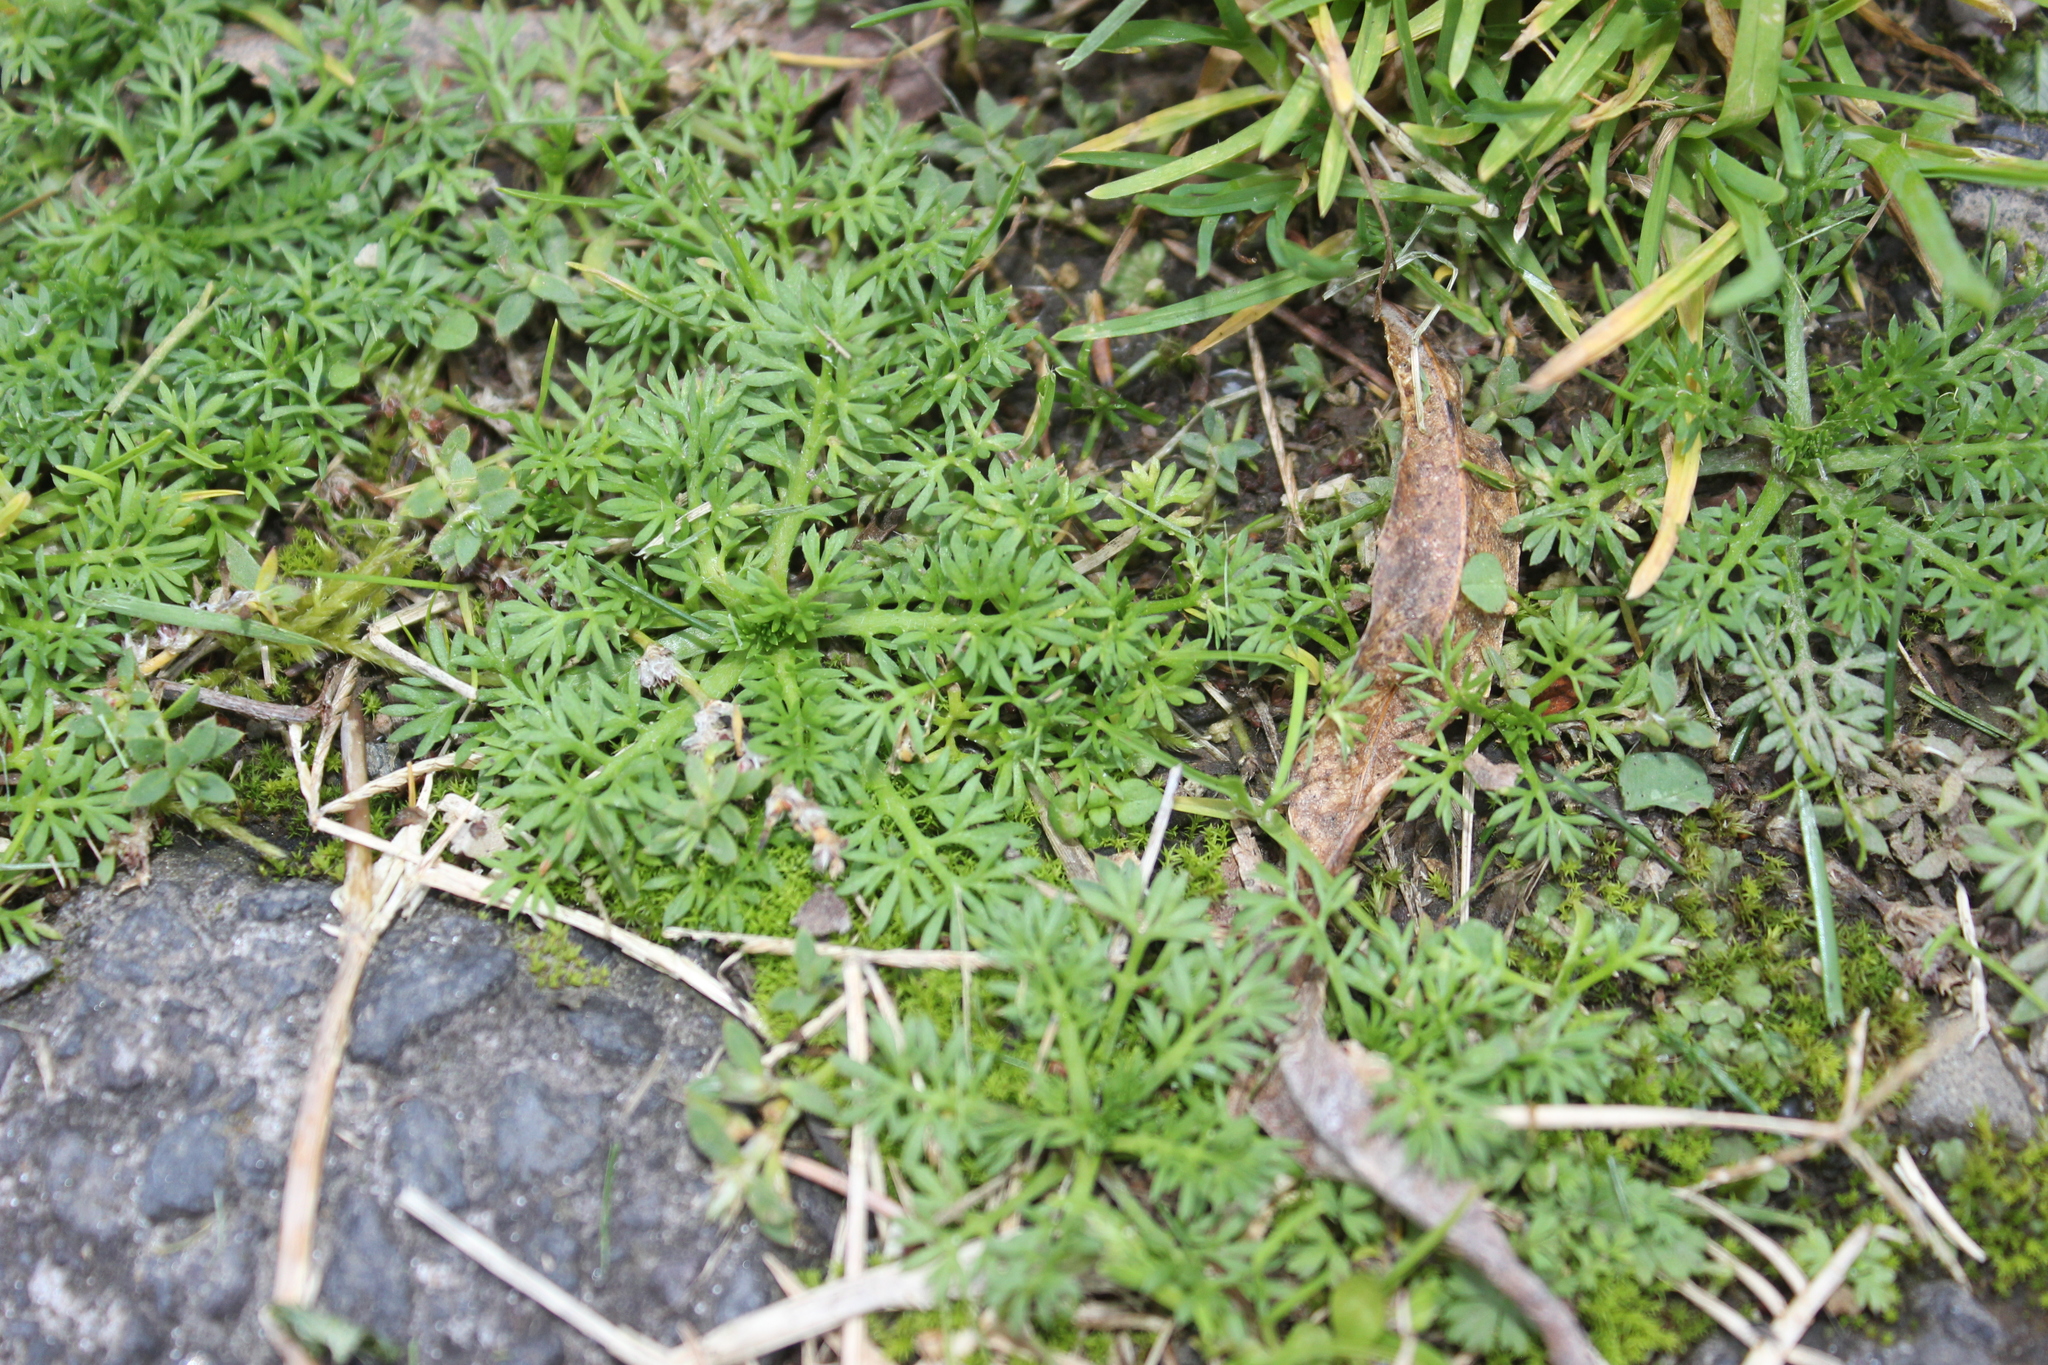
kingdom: Plantae
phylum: Tracheophyta
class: Magnoliopsida
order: Asterales
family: Asteraceae
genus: Soliva
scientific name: Soliva sessilis
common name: Field burrweed
